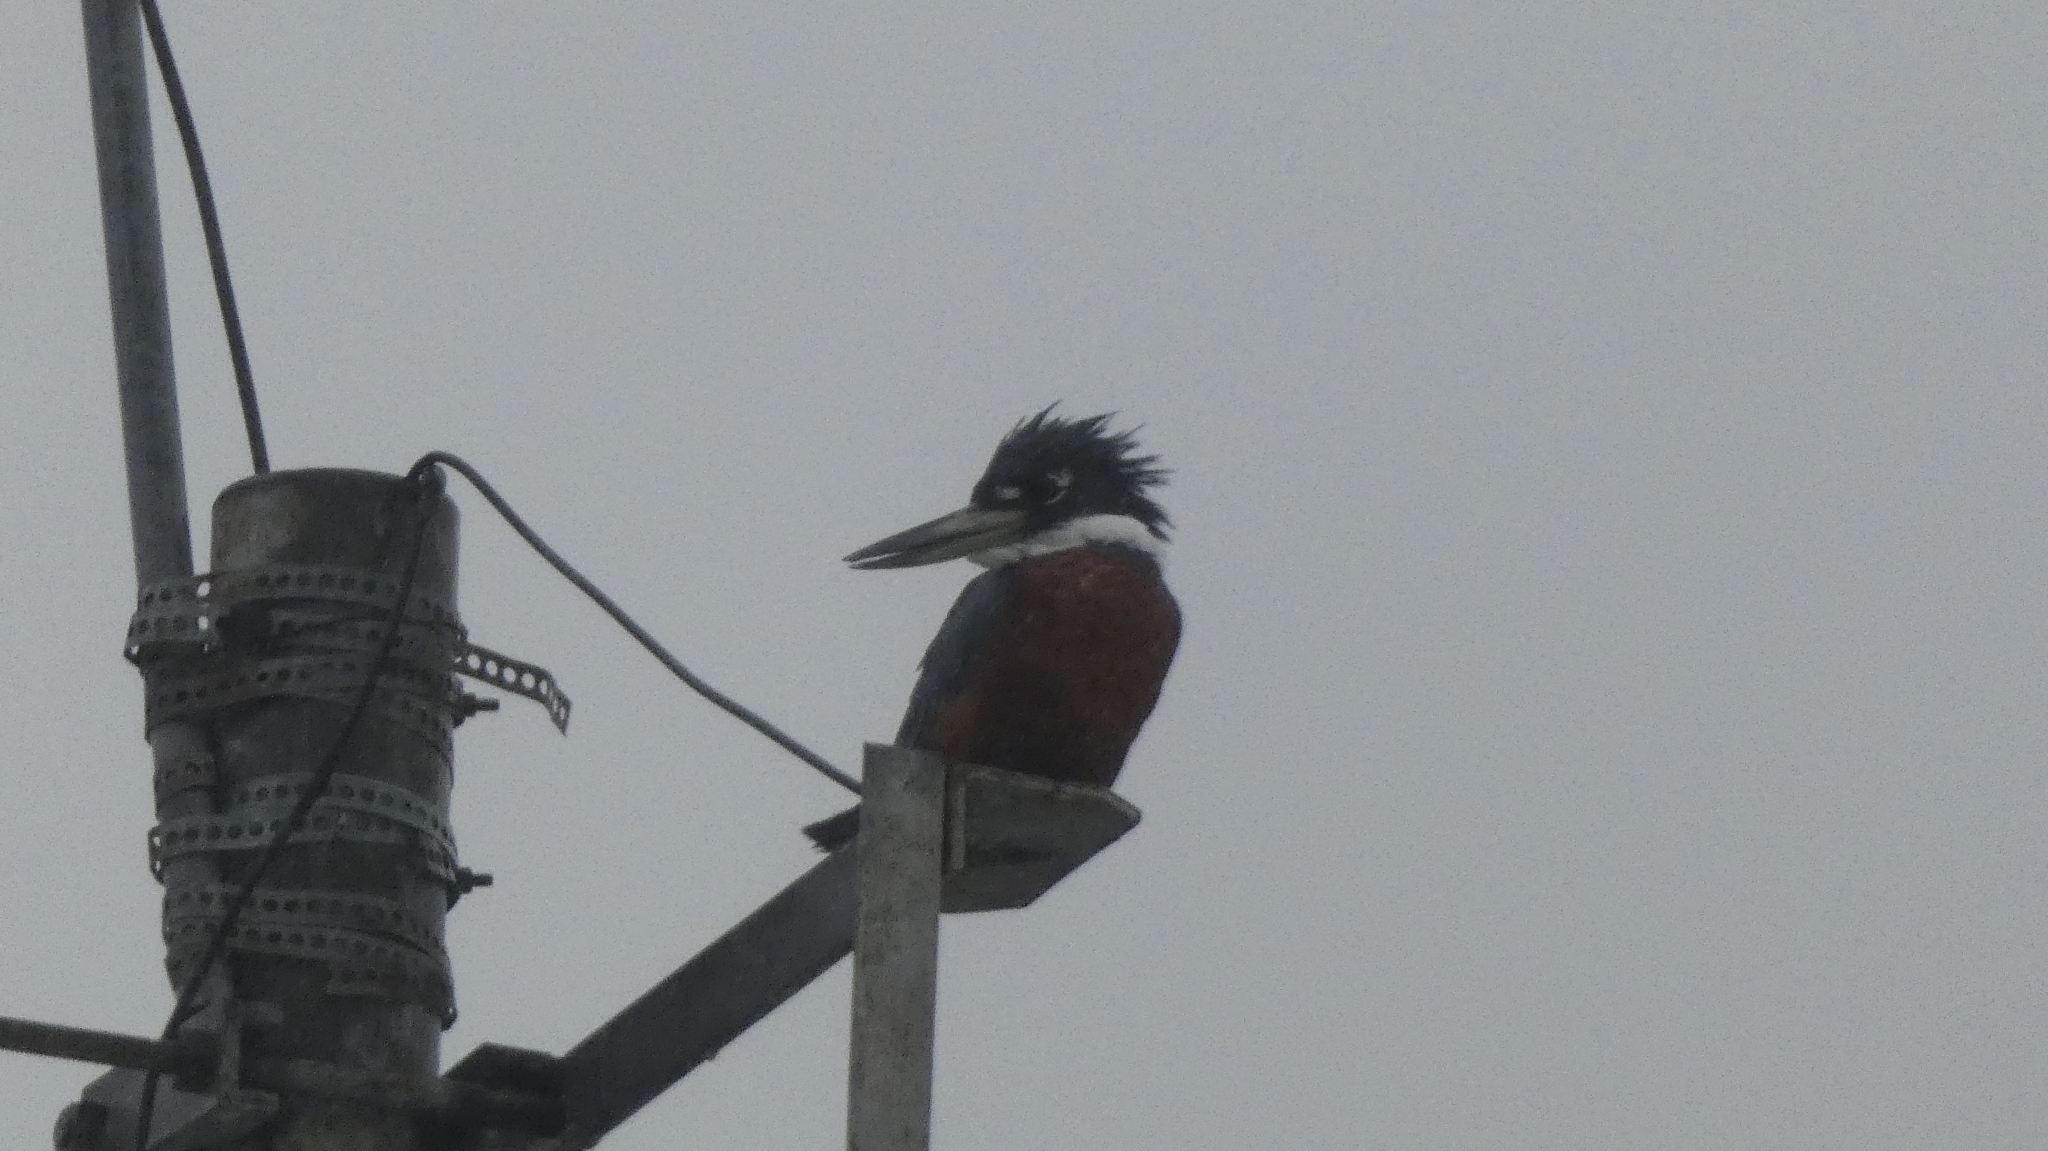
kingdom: Animalia
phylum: Chordata
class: Aves
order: Coraciiformes
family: Alcedinidae
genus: Megaceryle
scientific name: Megaceryle torquata
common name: Ringed kingfisher
